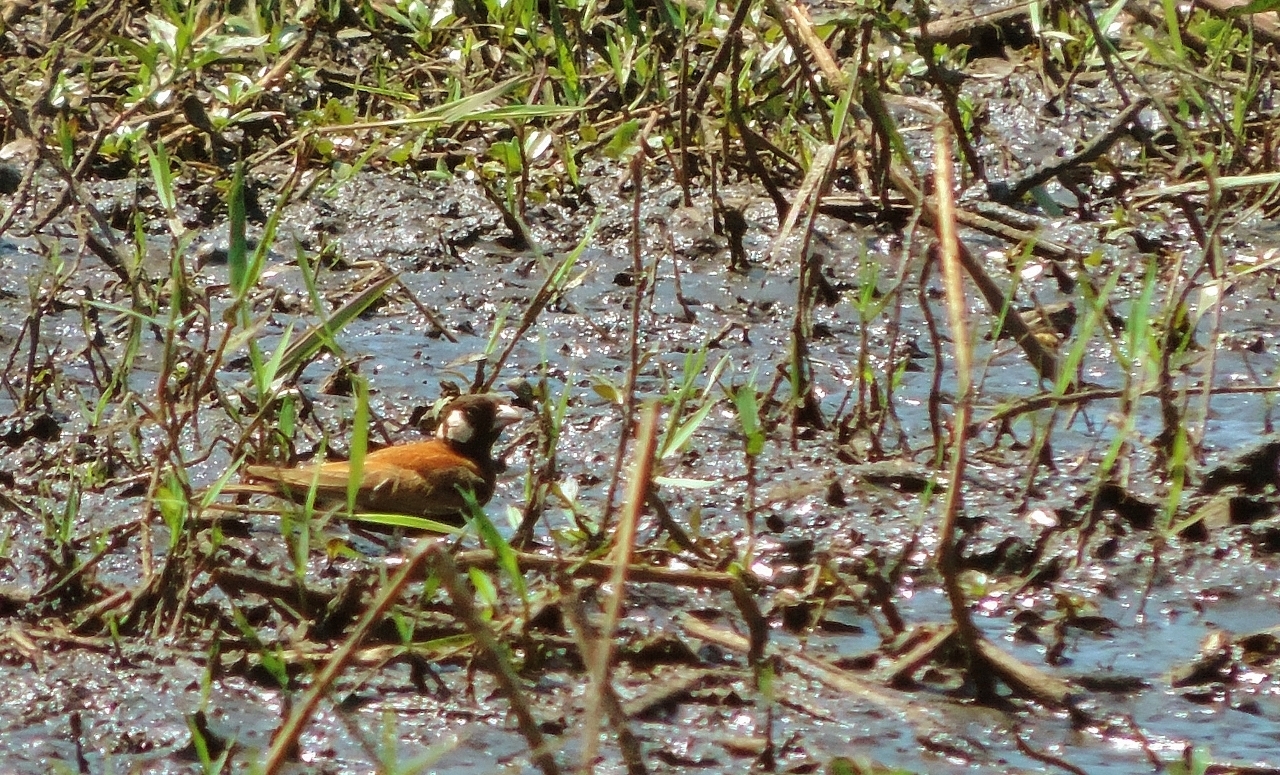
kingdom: Animalia
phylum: Chordata
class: Aves
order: Passeriformes
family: Alaudidae
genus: Eremopterix
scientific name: Eremopterix leucotis
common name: Chestnut-backed sparrow-lark
